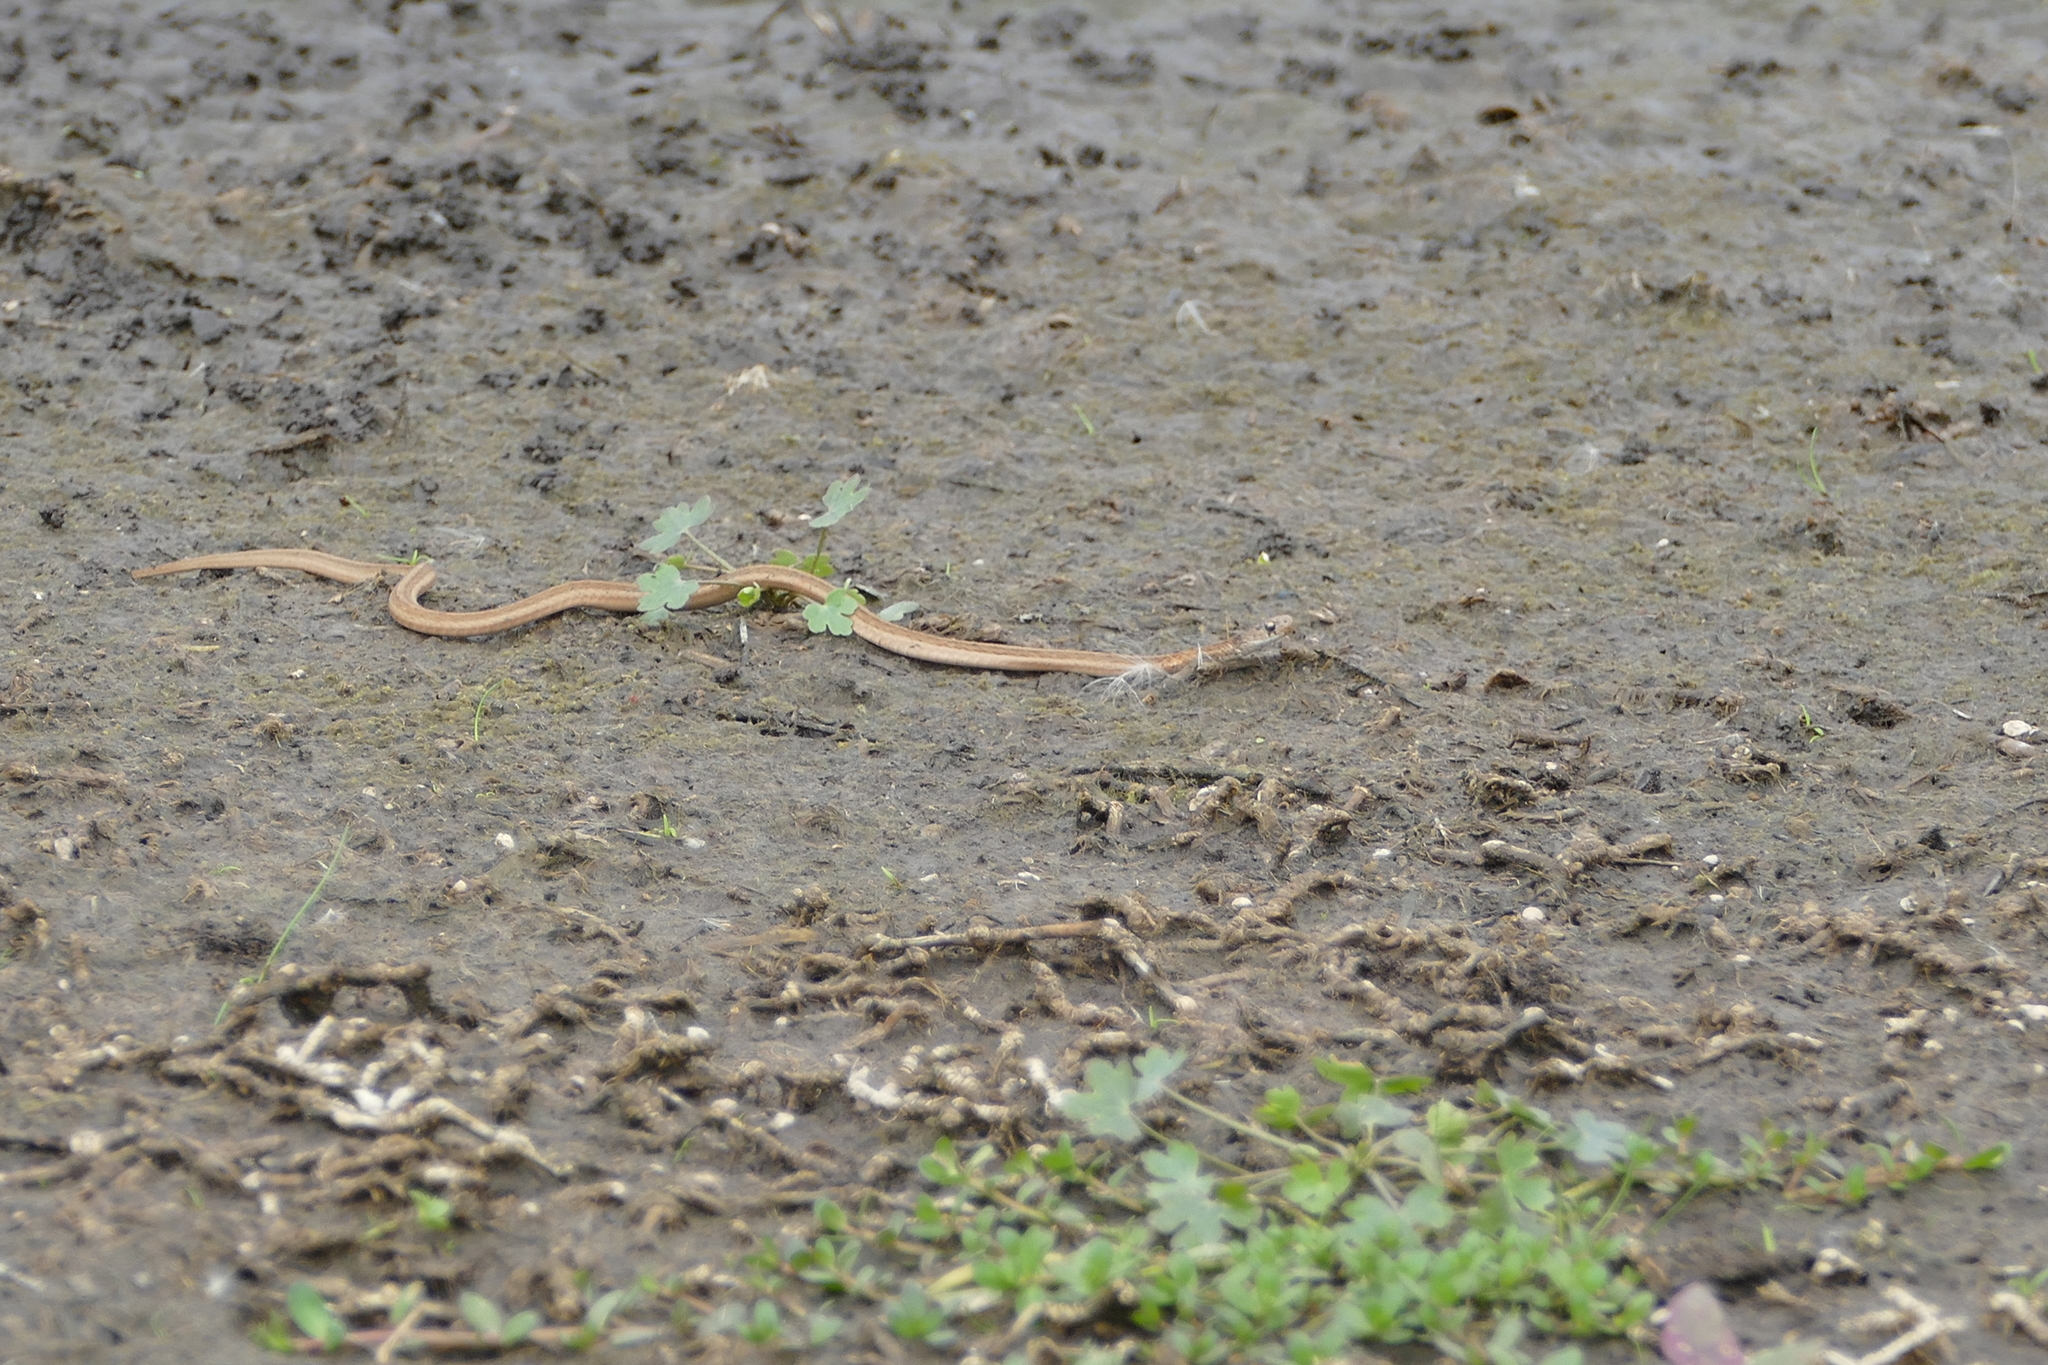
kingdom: Animalia
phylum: Chordata
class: Squamata
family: Colubridae
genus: Storeria
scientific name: Storeria dekayi
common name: (dekay’s) brown snake
